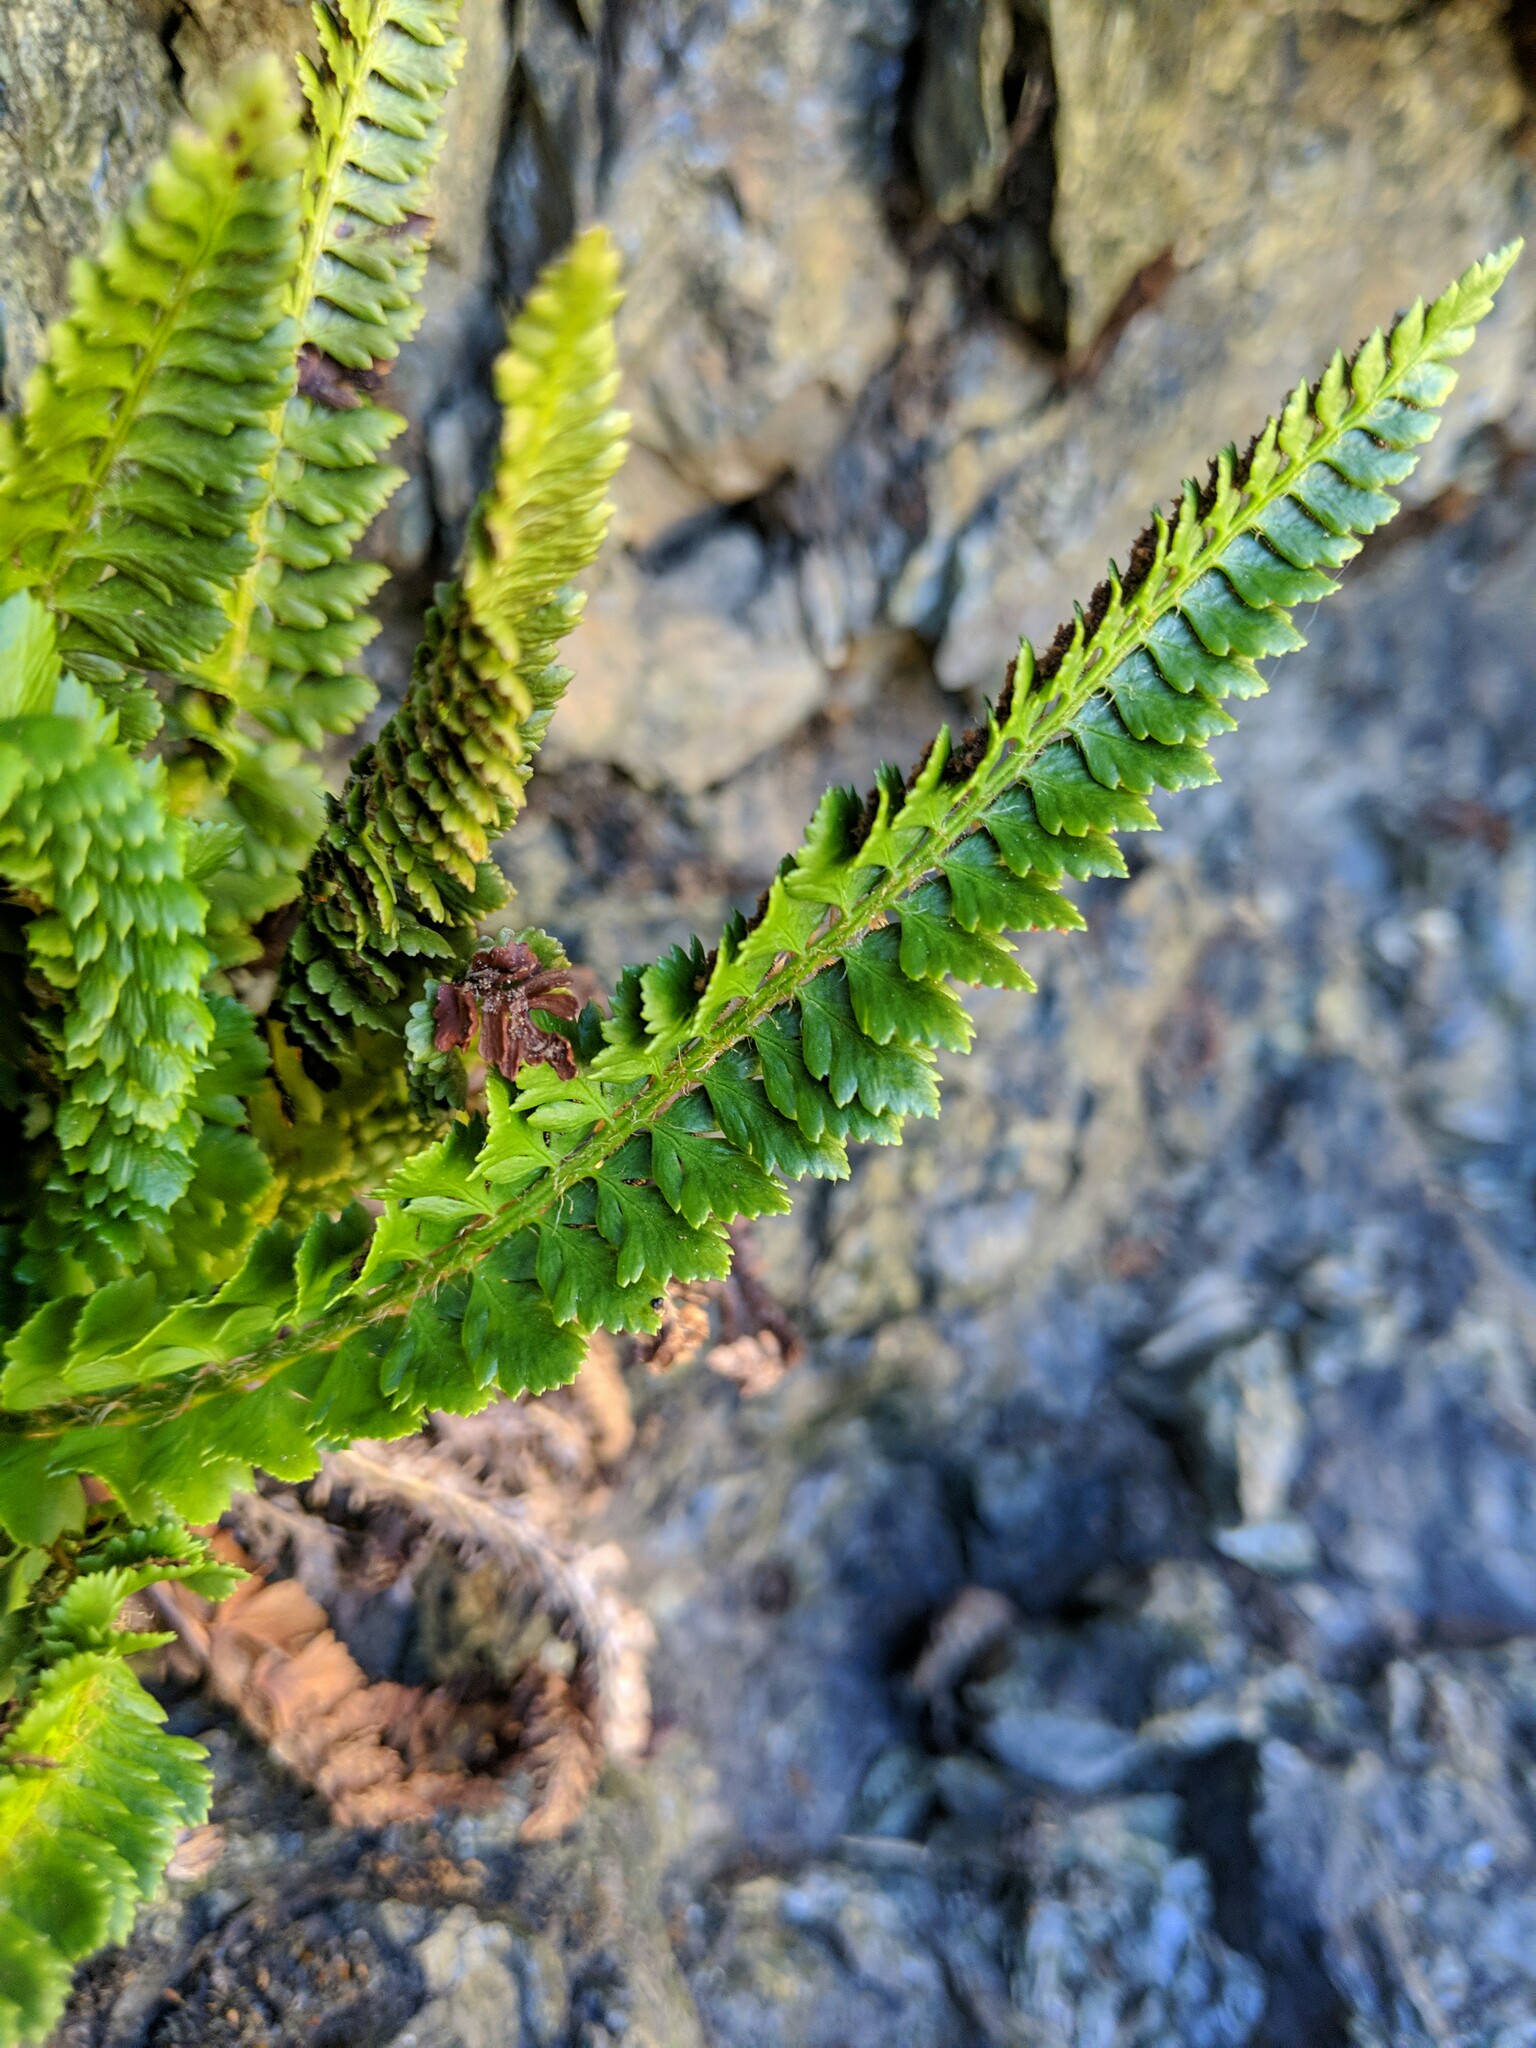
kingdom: Plantae
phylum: Tracheophyta
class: Polypodiopsida
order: Polypodiales
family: Dryopteridaceae
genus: Polystichum
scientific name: Polystichum
